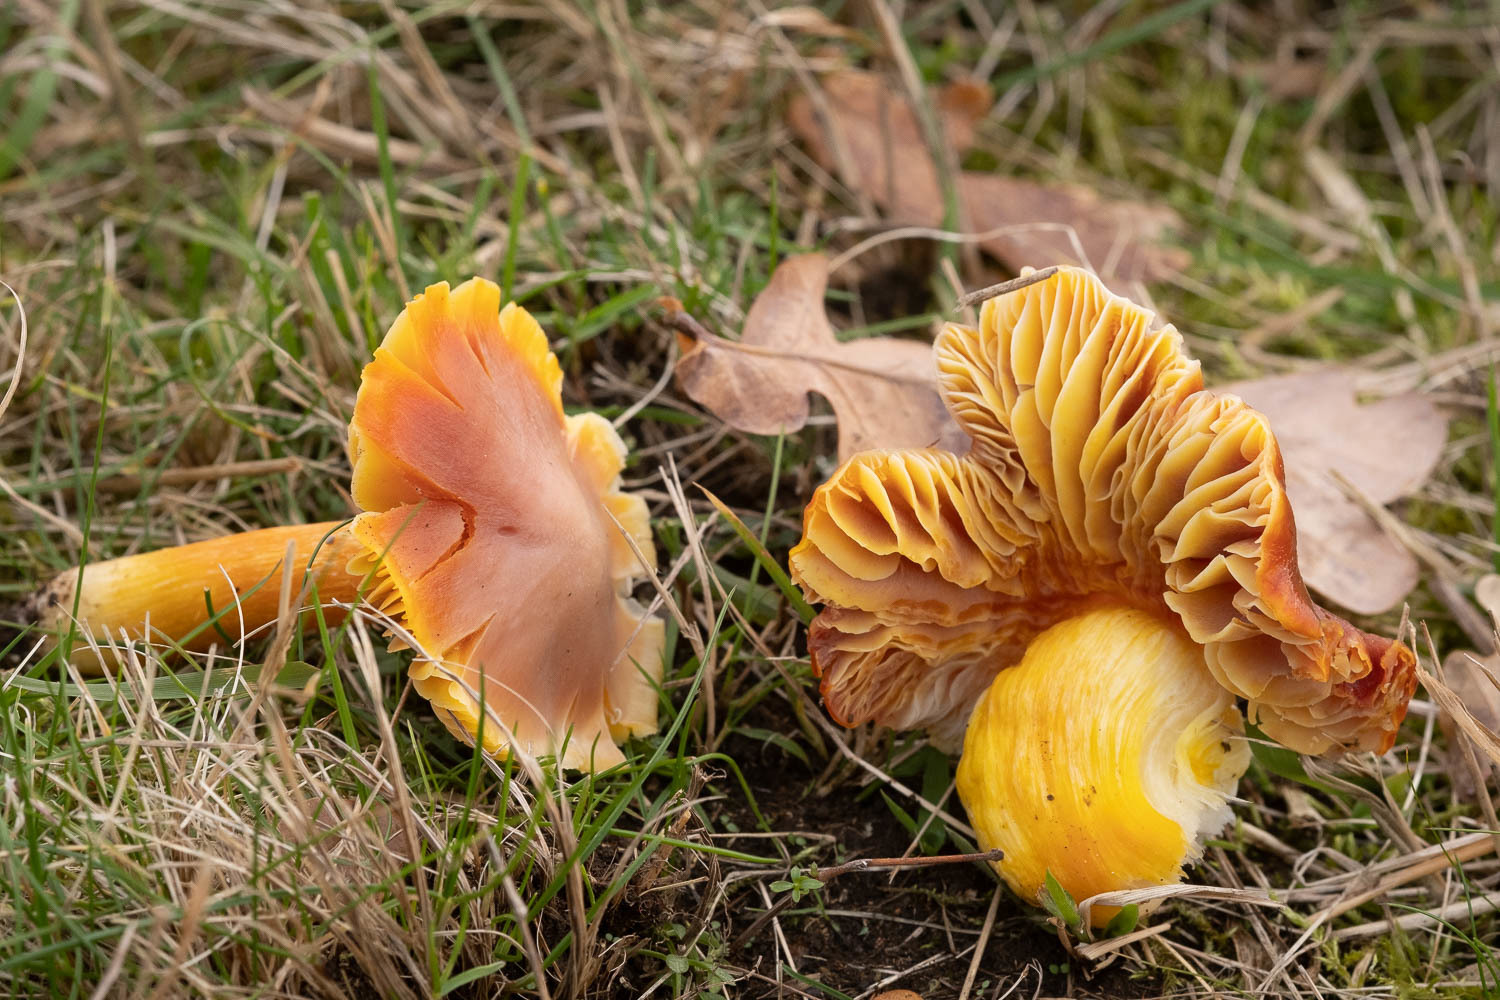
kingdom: Fungi
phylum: Basidiomycota
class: Agaricomycetes
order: Agaricales
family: Hygrophoraceae
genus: Hygrocybe
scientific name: Hygrocybe punicea
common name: Crimson waxcap
